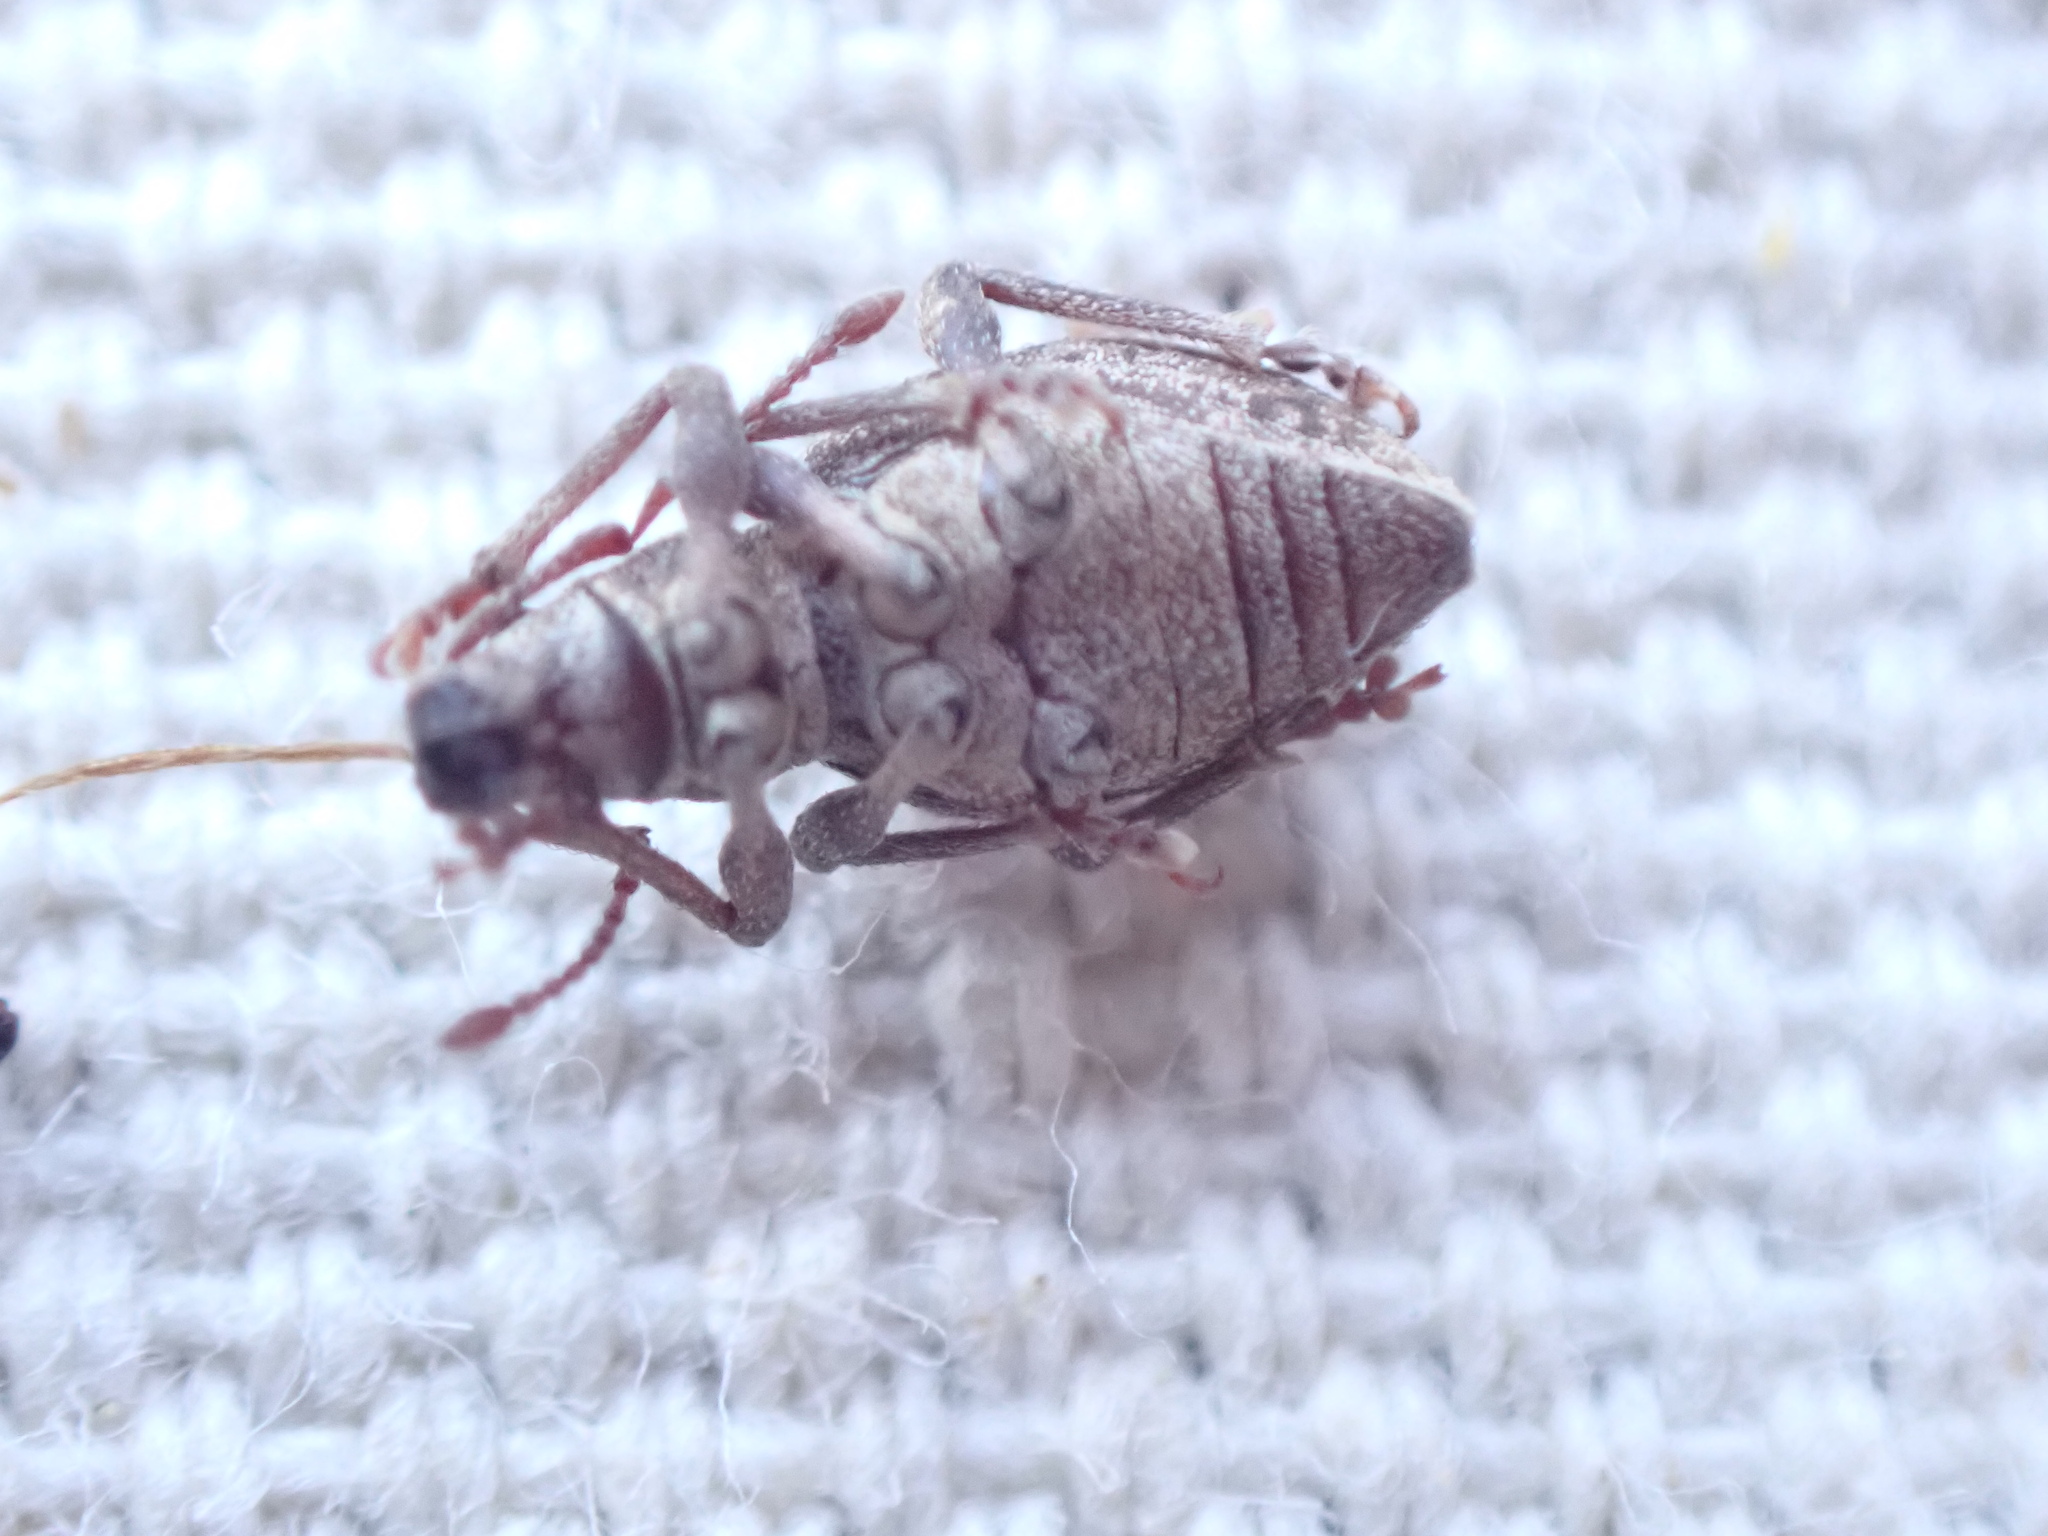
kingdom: Animalia
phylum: Arthropoda
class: Insecta
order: Coleoptera
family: Curculionidae
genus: Sciopithes
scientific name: Sciopithes obscurus
